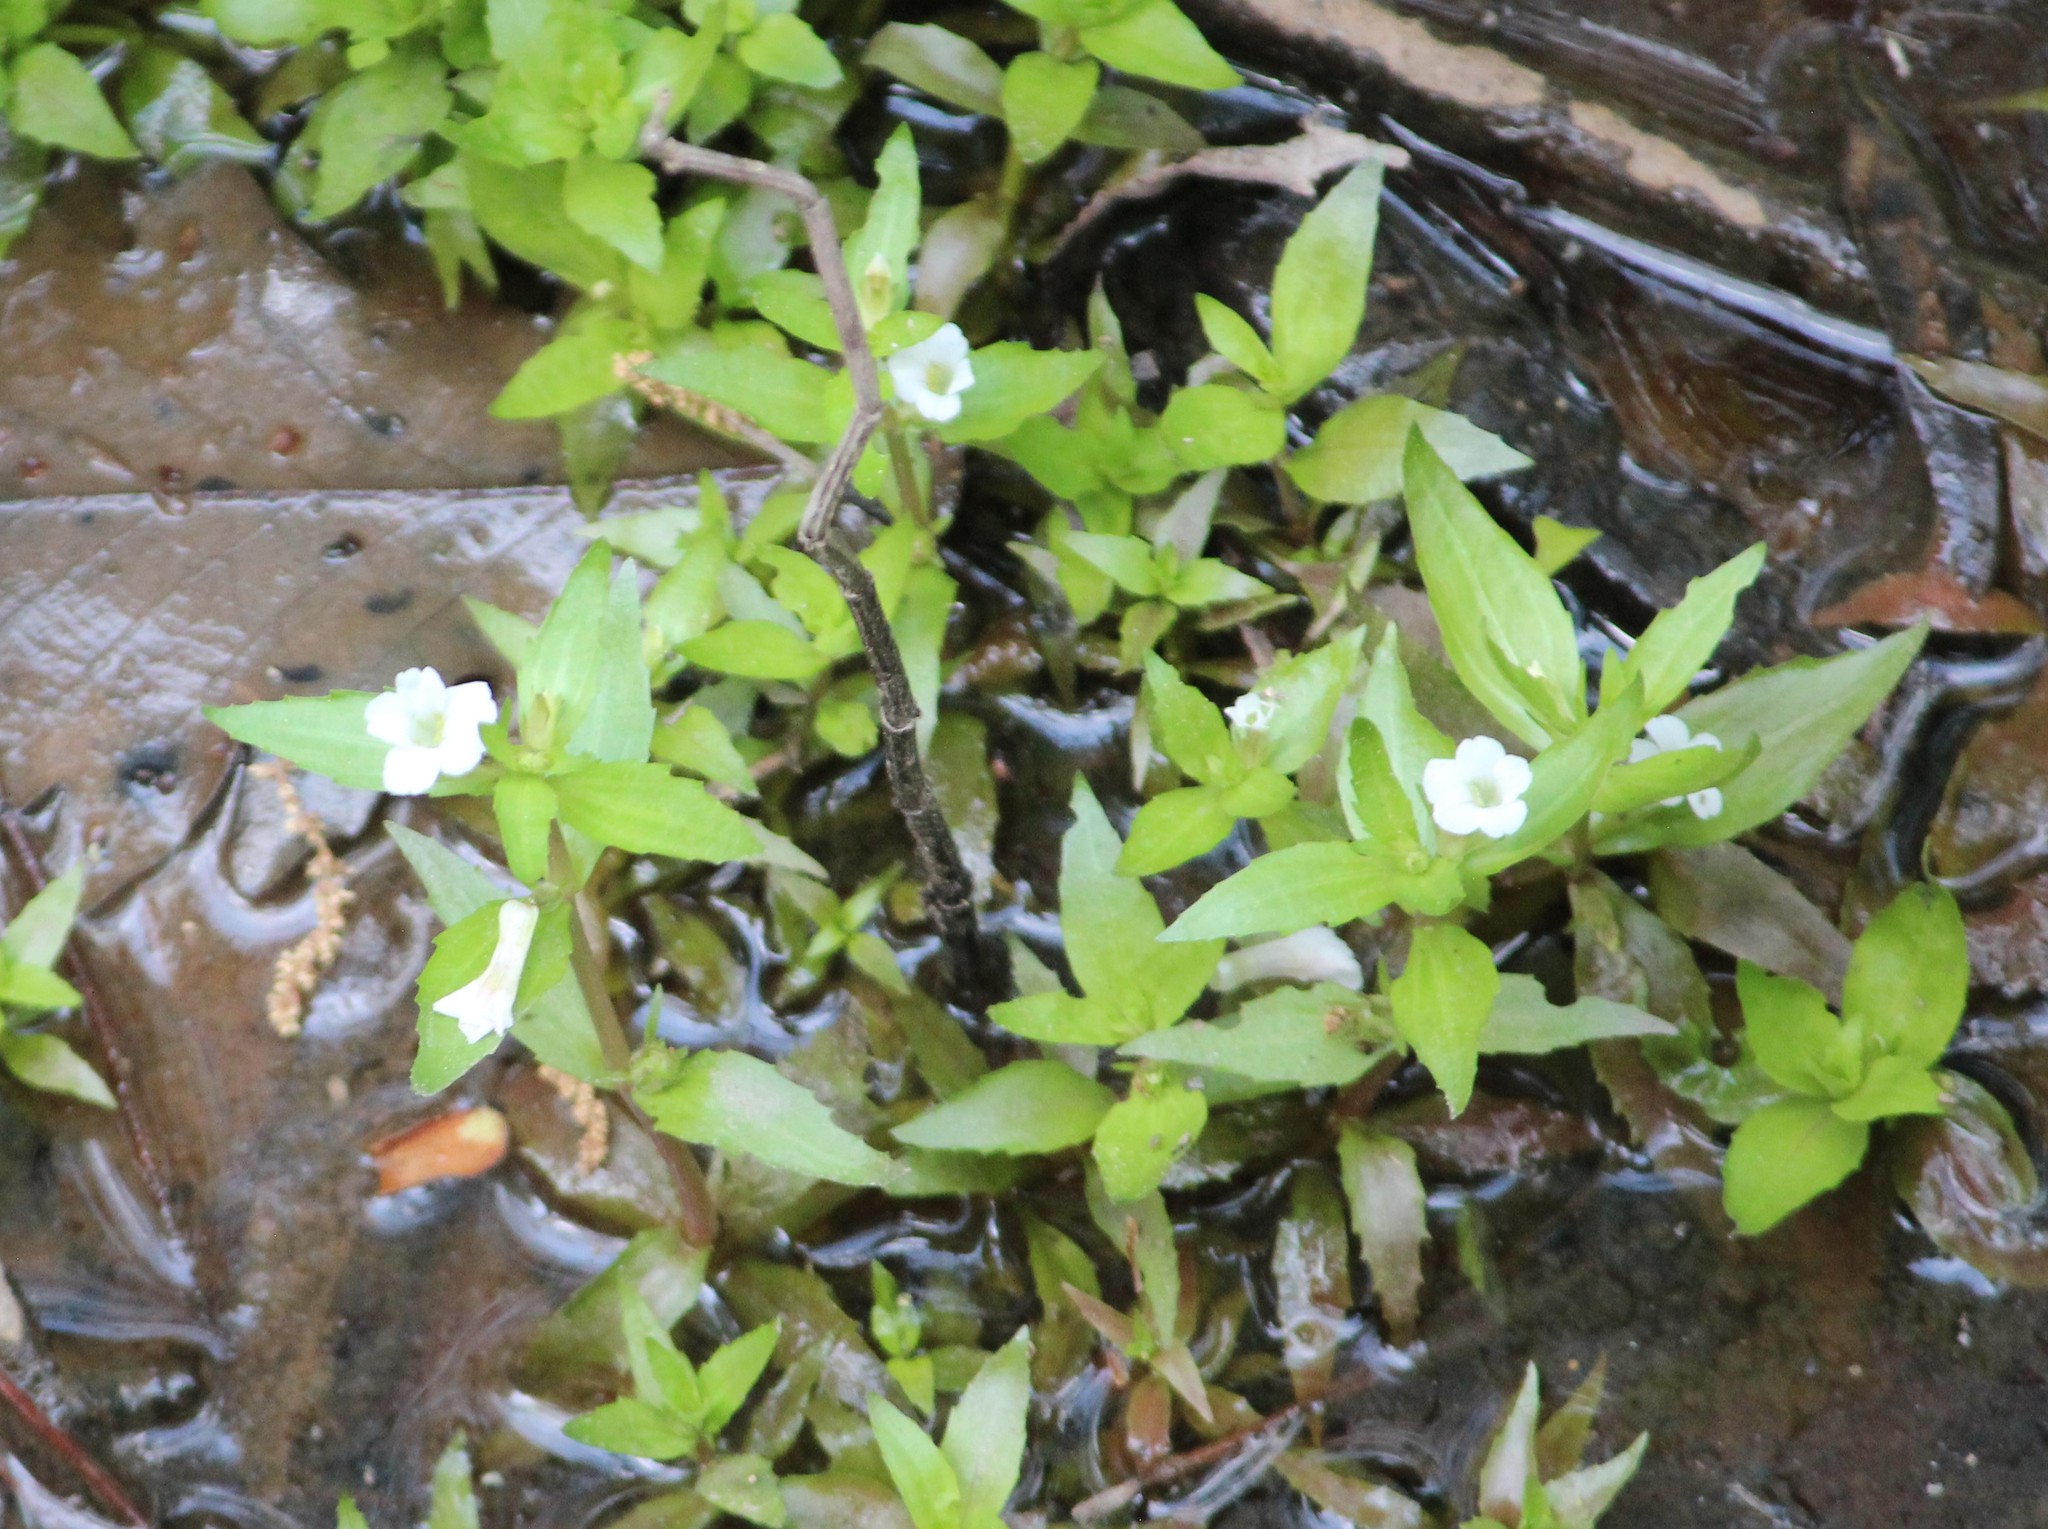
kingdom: Plantae
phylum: Tracheophyta
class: Magnoliopsida
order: Lamiales
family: Plantaginaceae
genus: Gratiola
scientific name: Gratiola virginiana
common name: Roundfruit hedgehyssop
